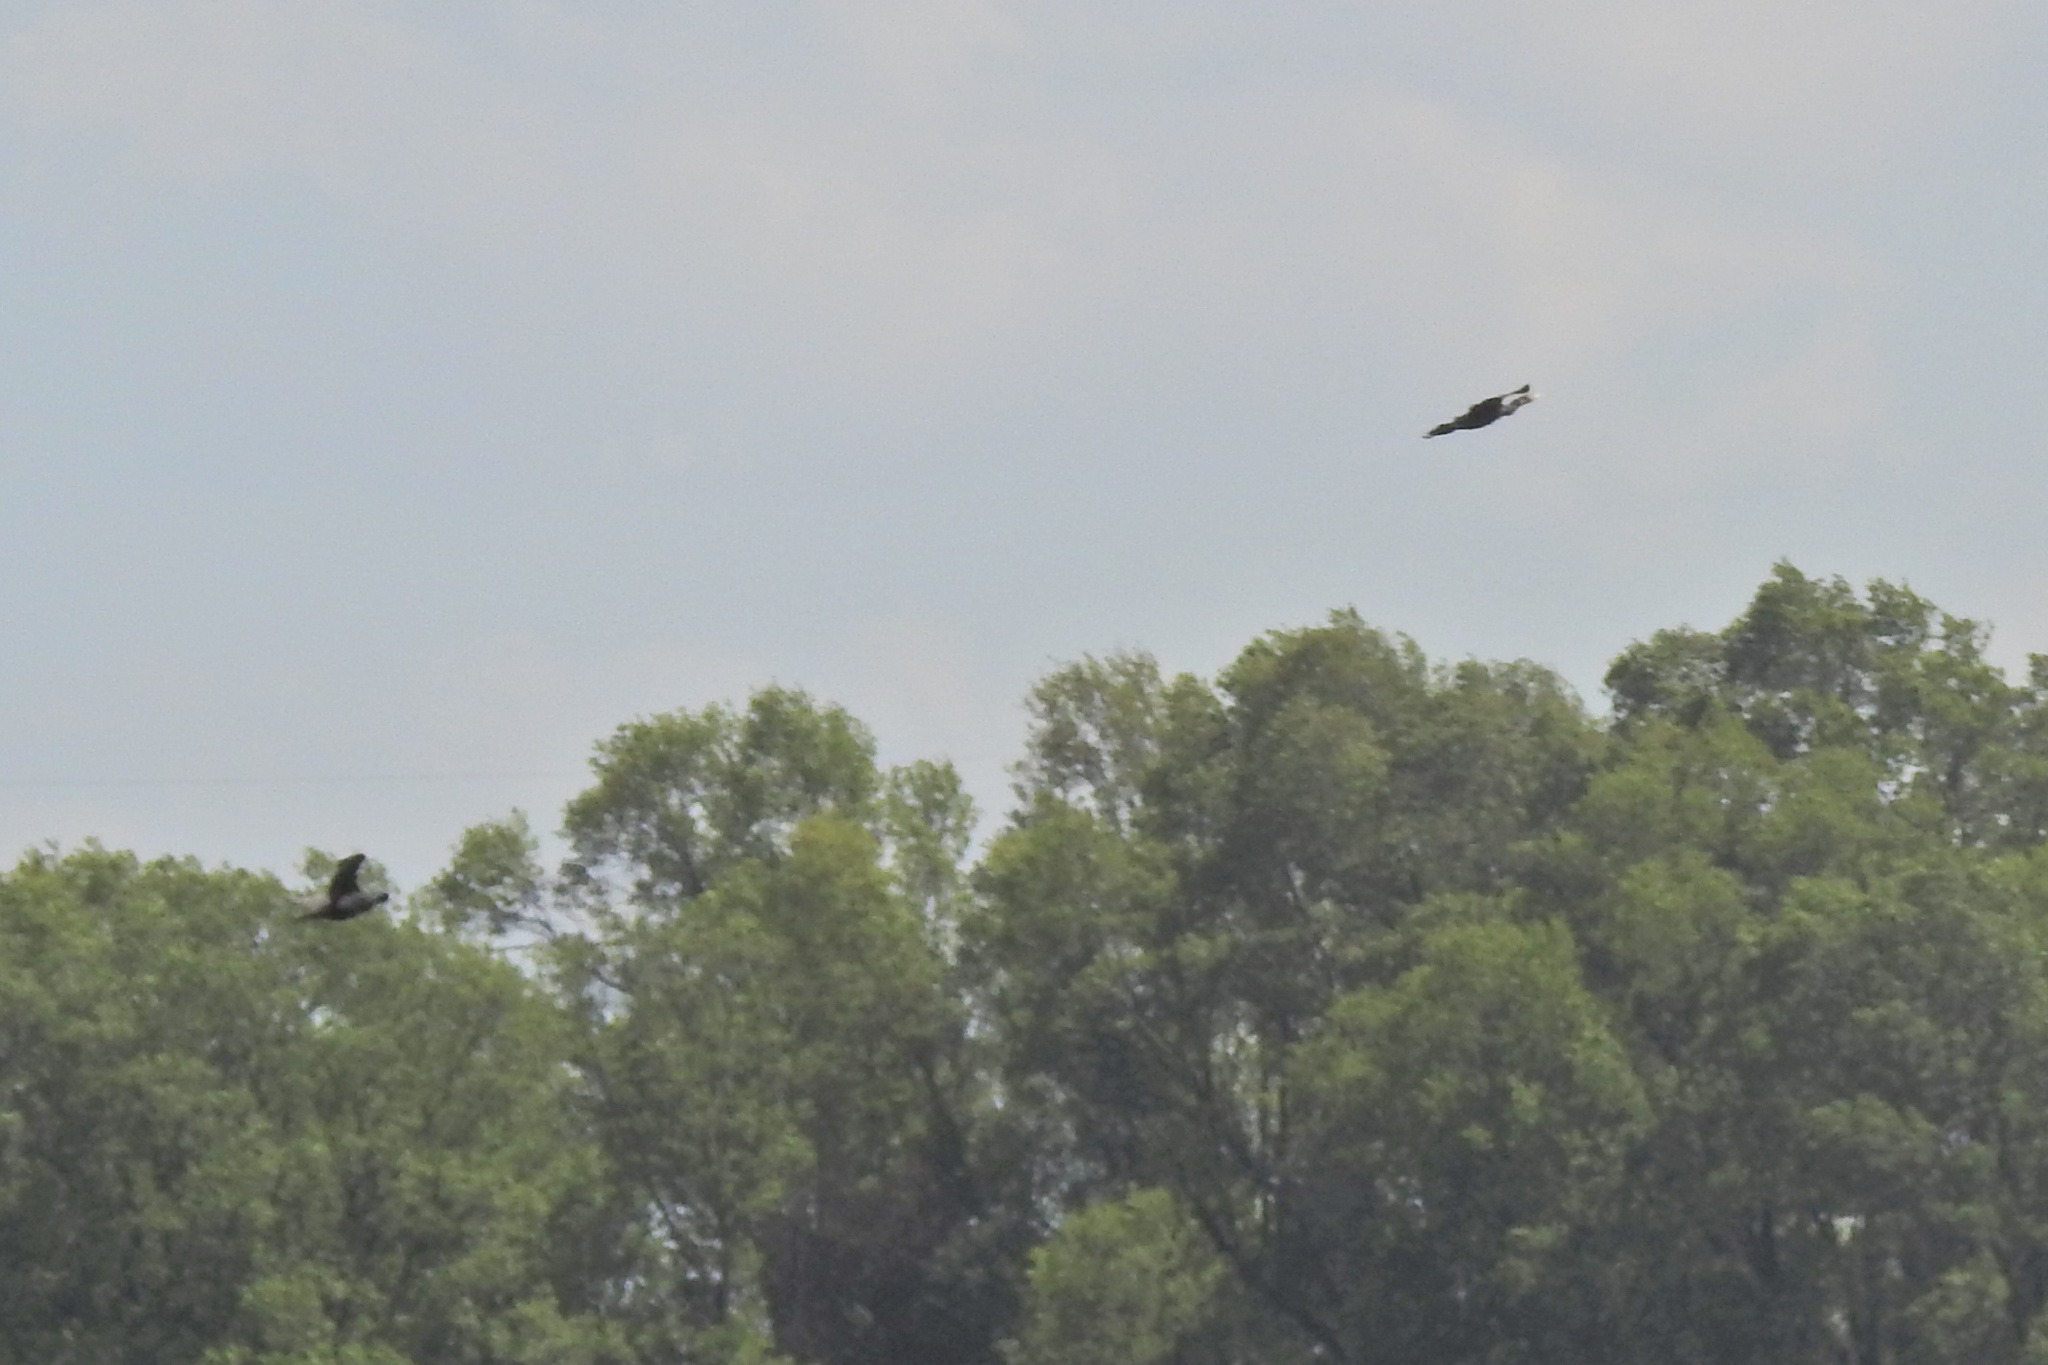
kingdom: Animalia
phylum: Chordata
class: Aves
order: Suliformes
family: Phalacrocoracidae
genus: Phalacrocorax
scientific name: Phalacrocorax auritus
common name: Double-crested cormorant
